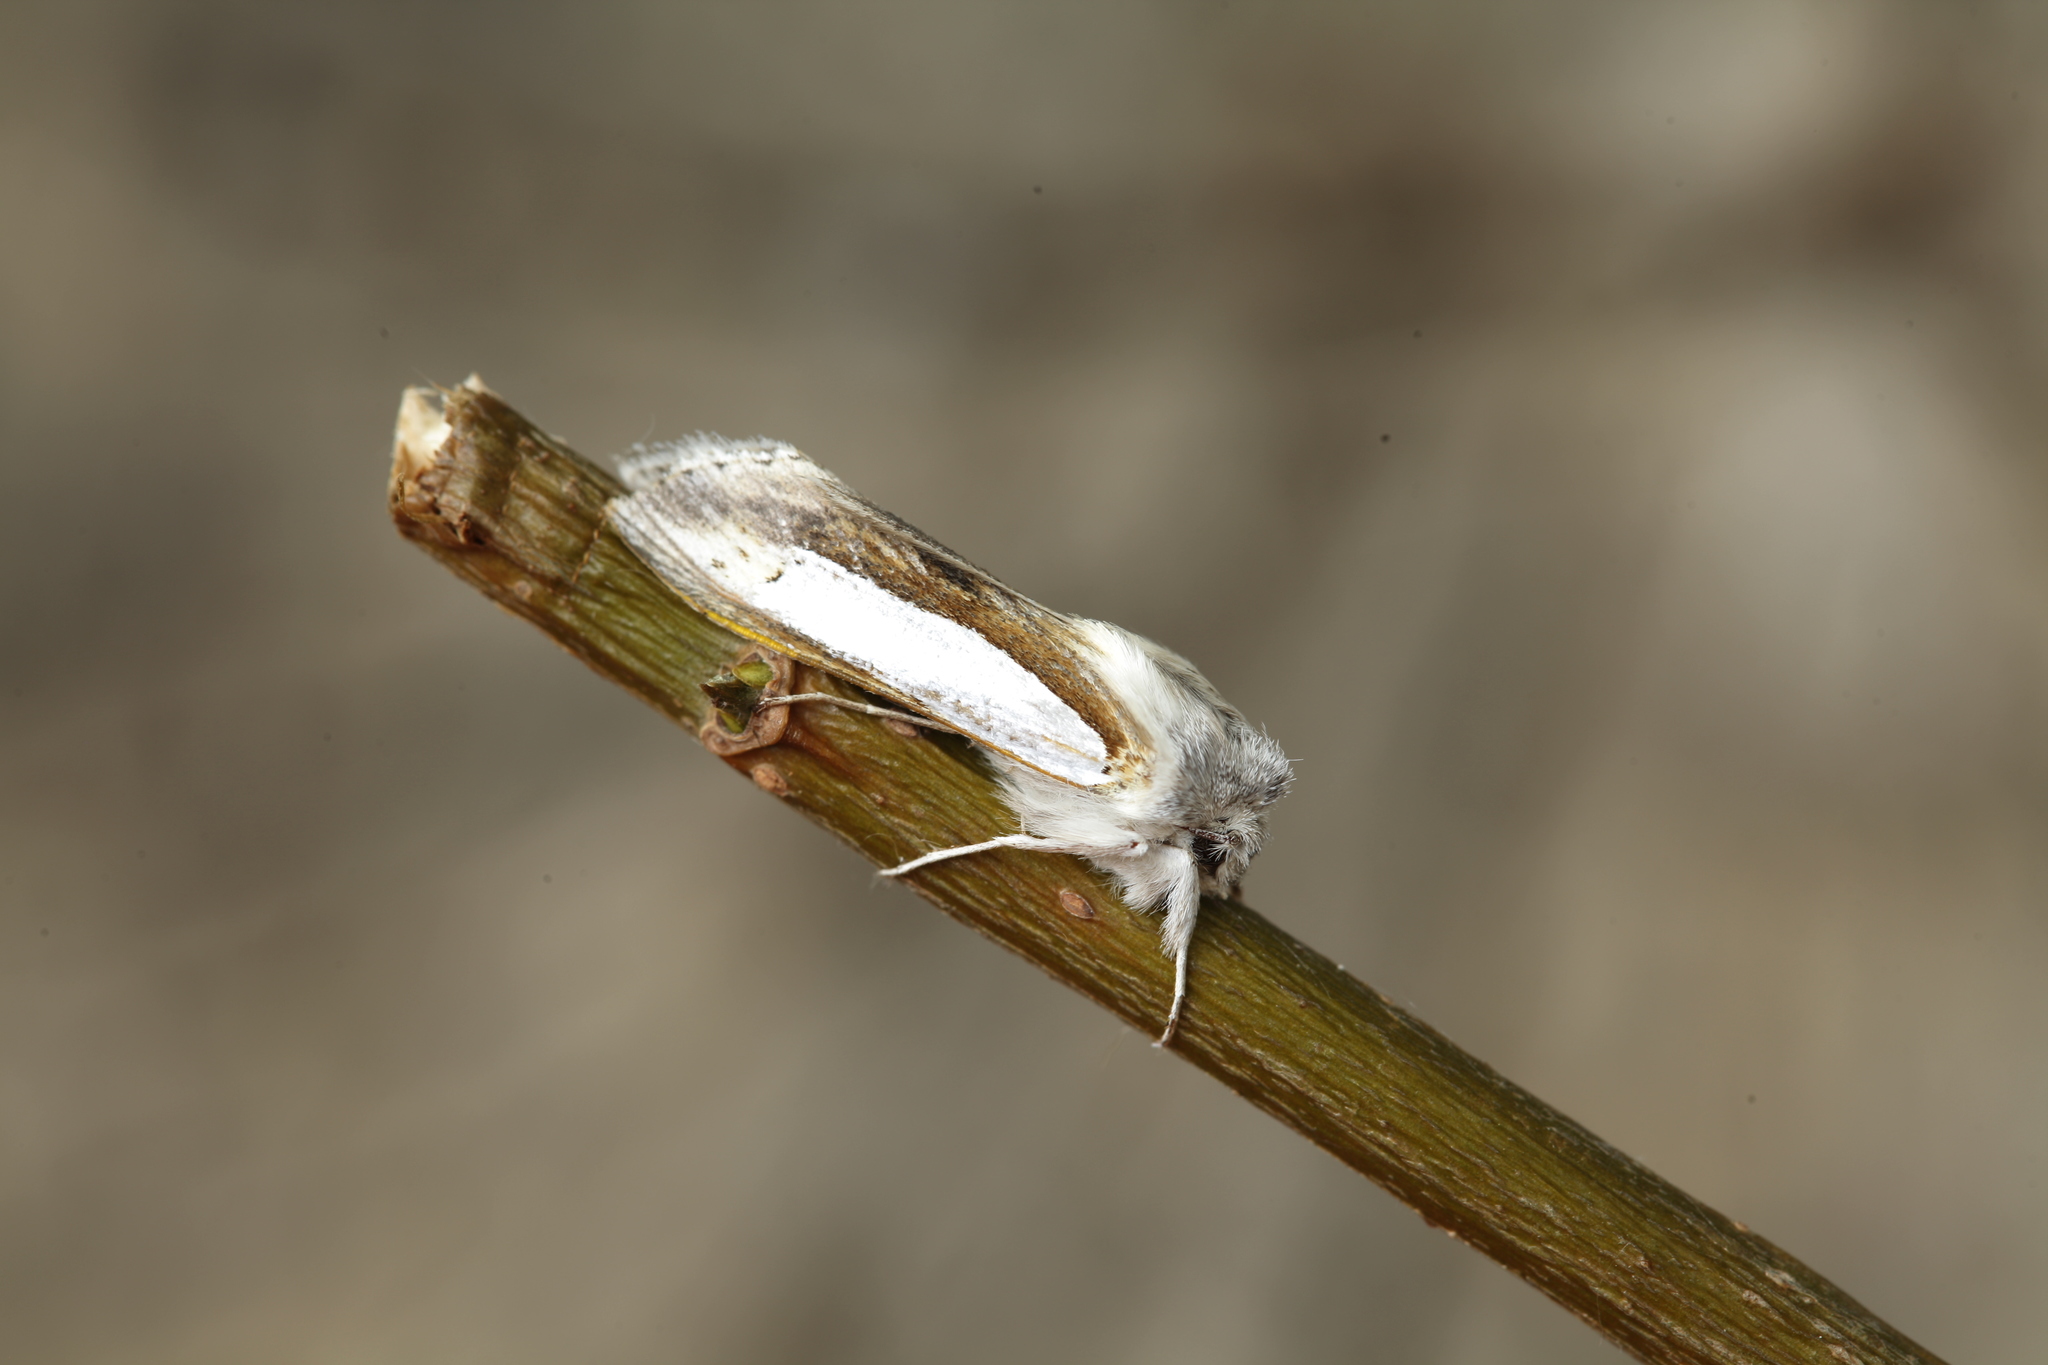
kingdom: Animalia
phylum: Arthropoda
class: Insecta
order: Lepidoptera
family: Noctuidae
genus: Cucullia
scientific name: Cucullia argentina
